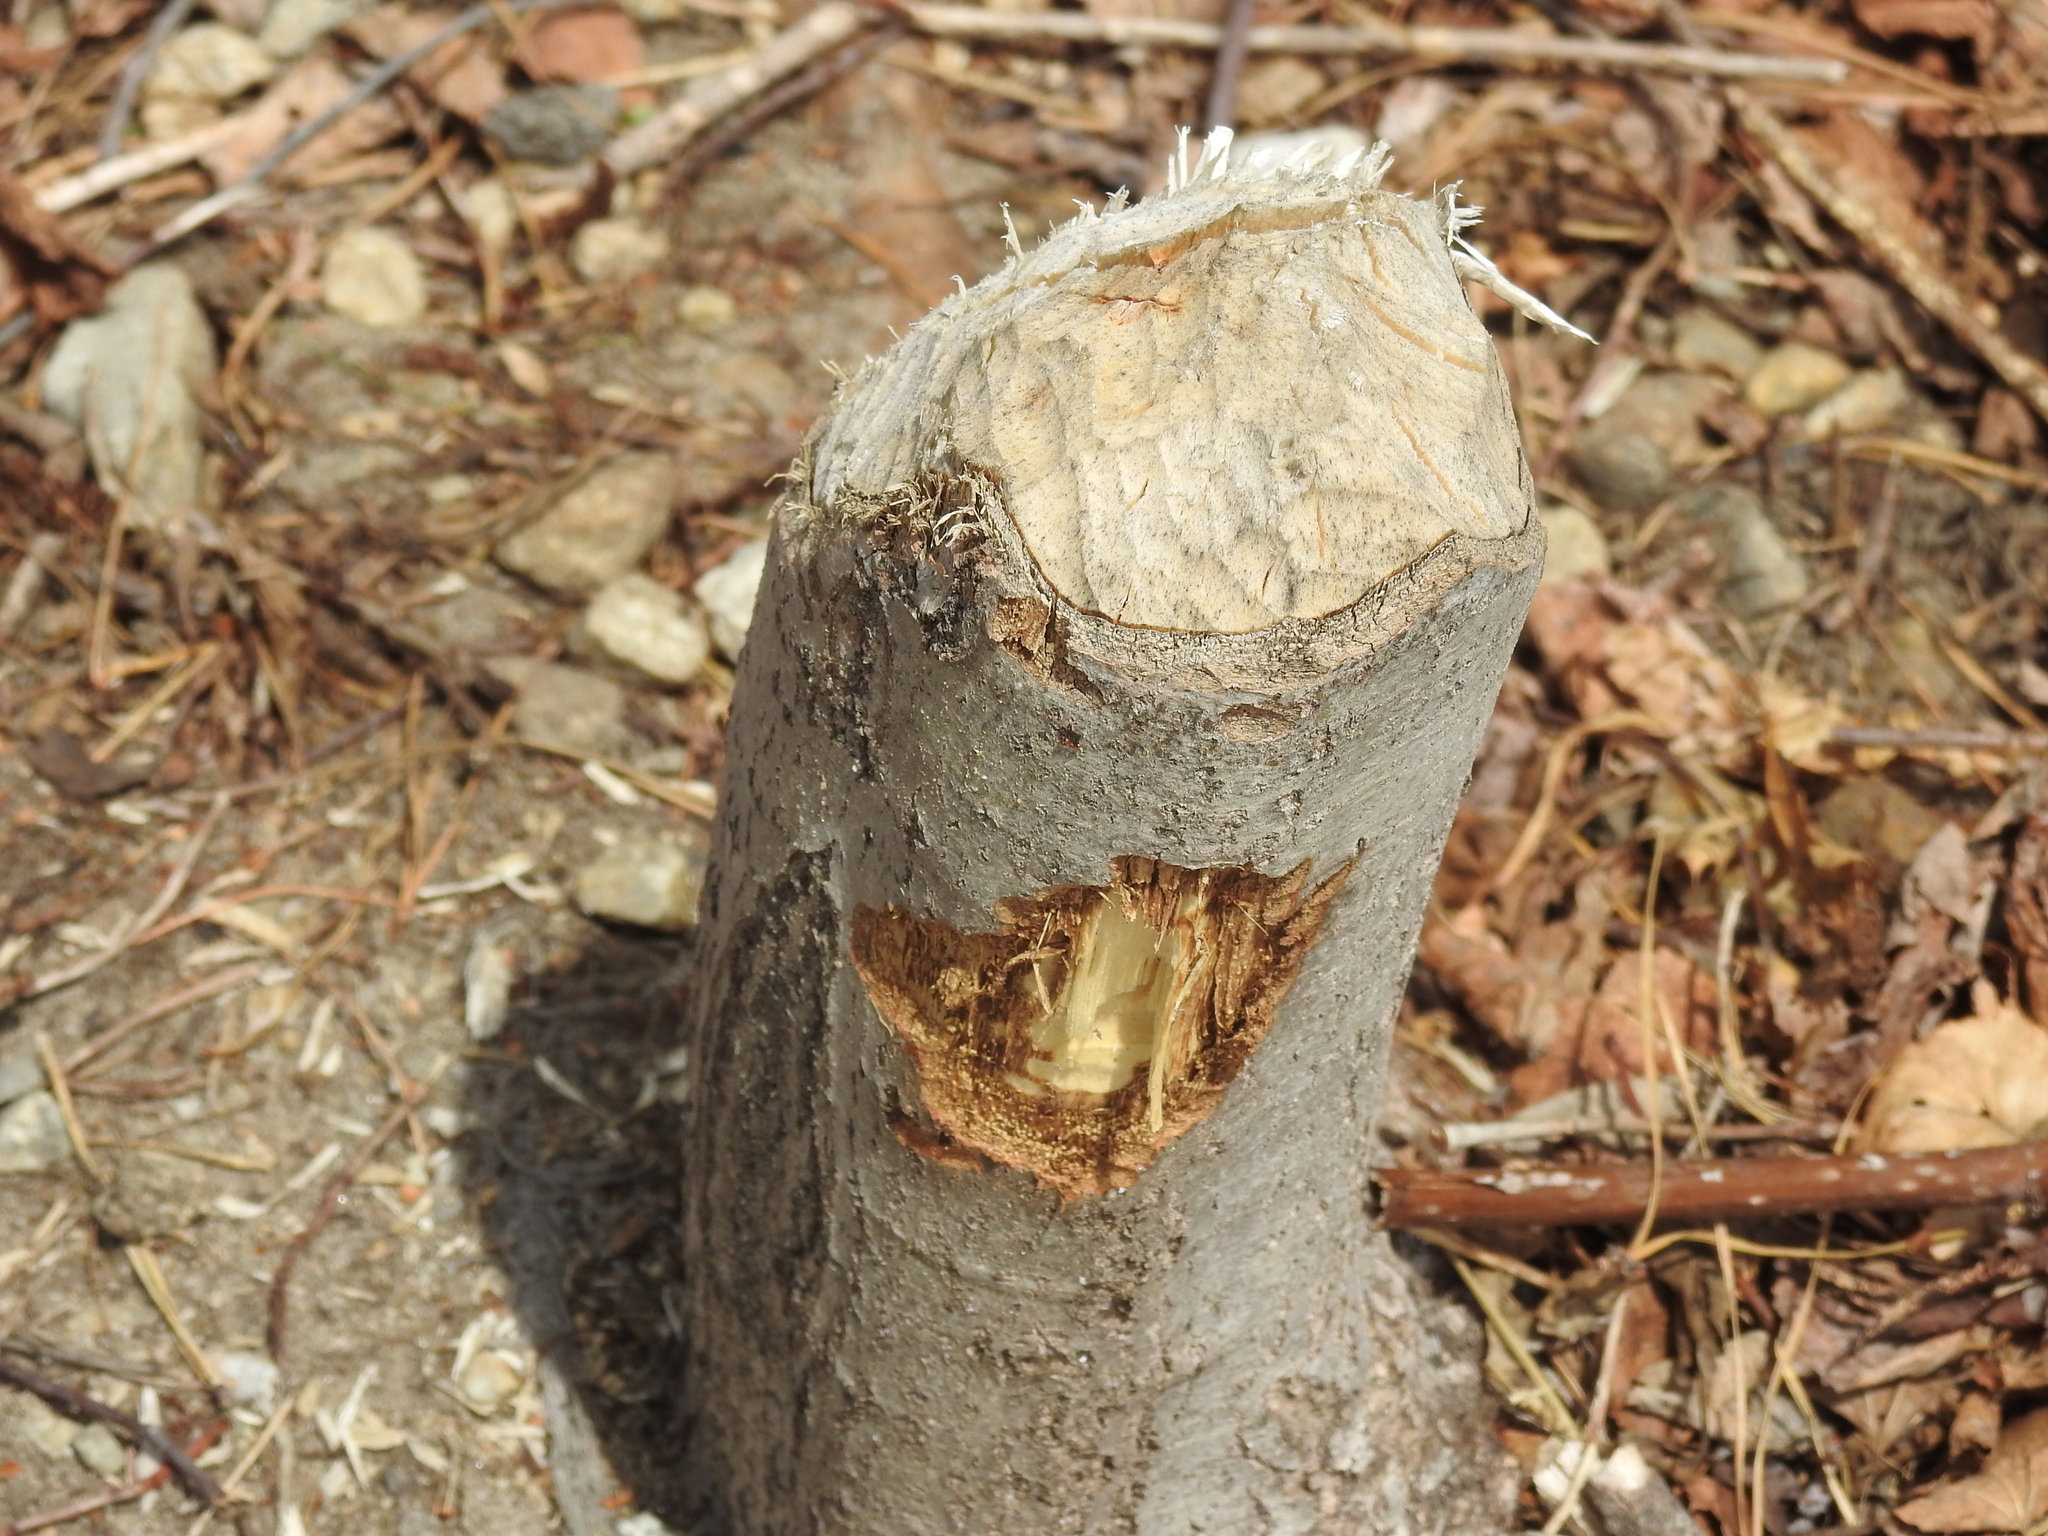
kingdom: Animalia
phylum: Chordata
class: Mammalia
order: Rodentia
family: Castoridae
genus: Castor
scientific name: Castor canadensis
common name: American beaver
